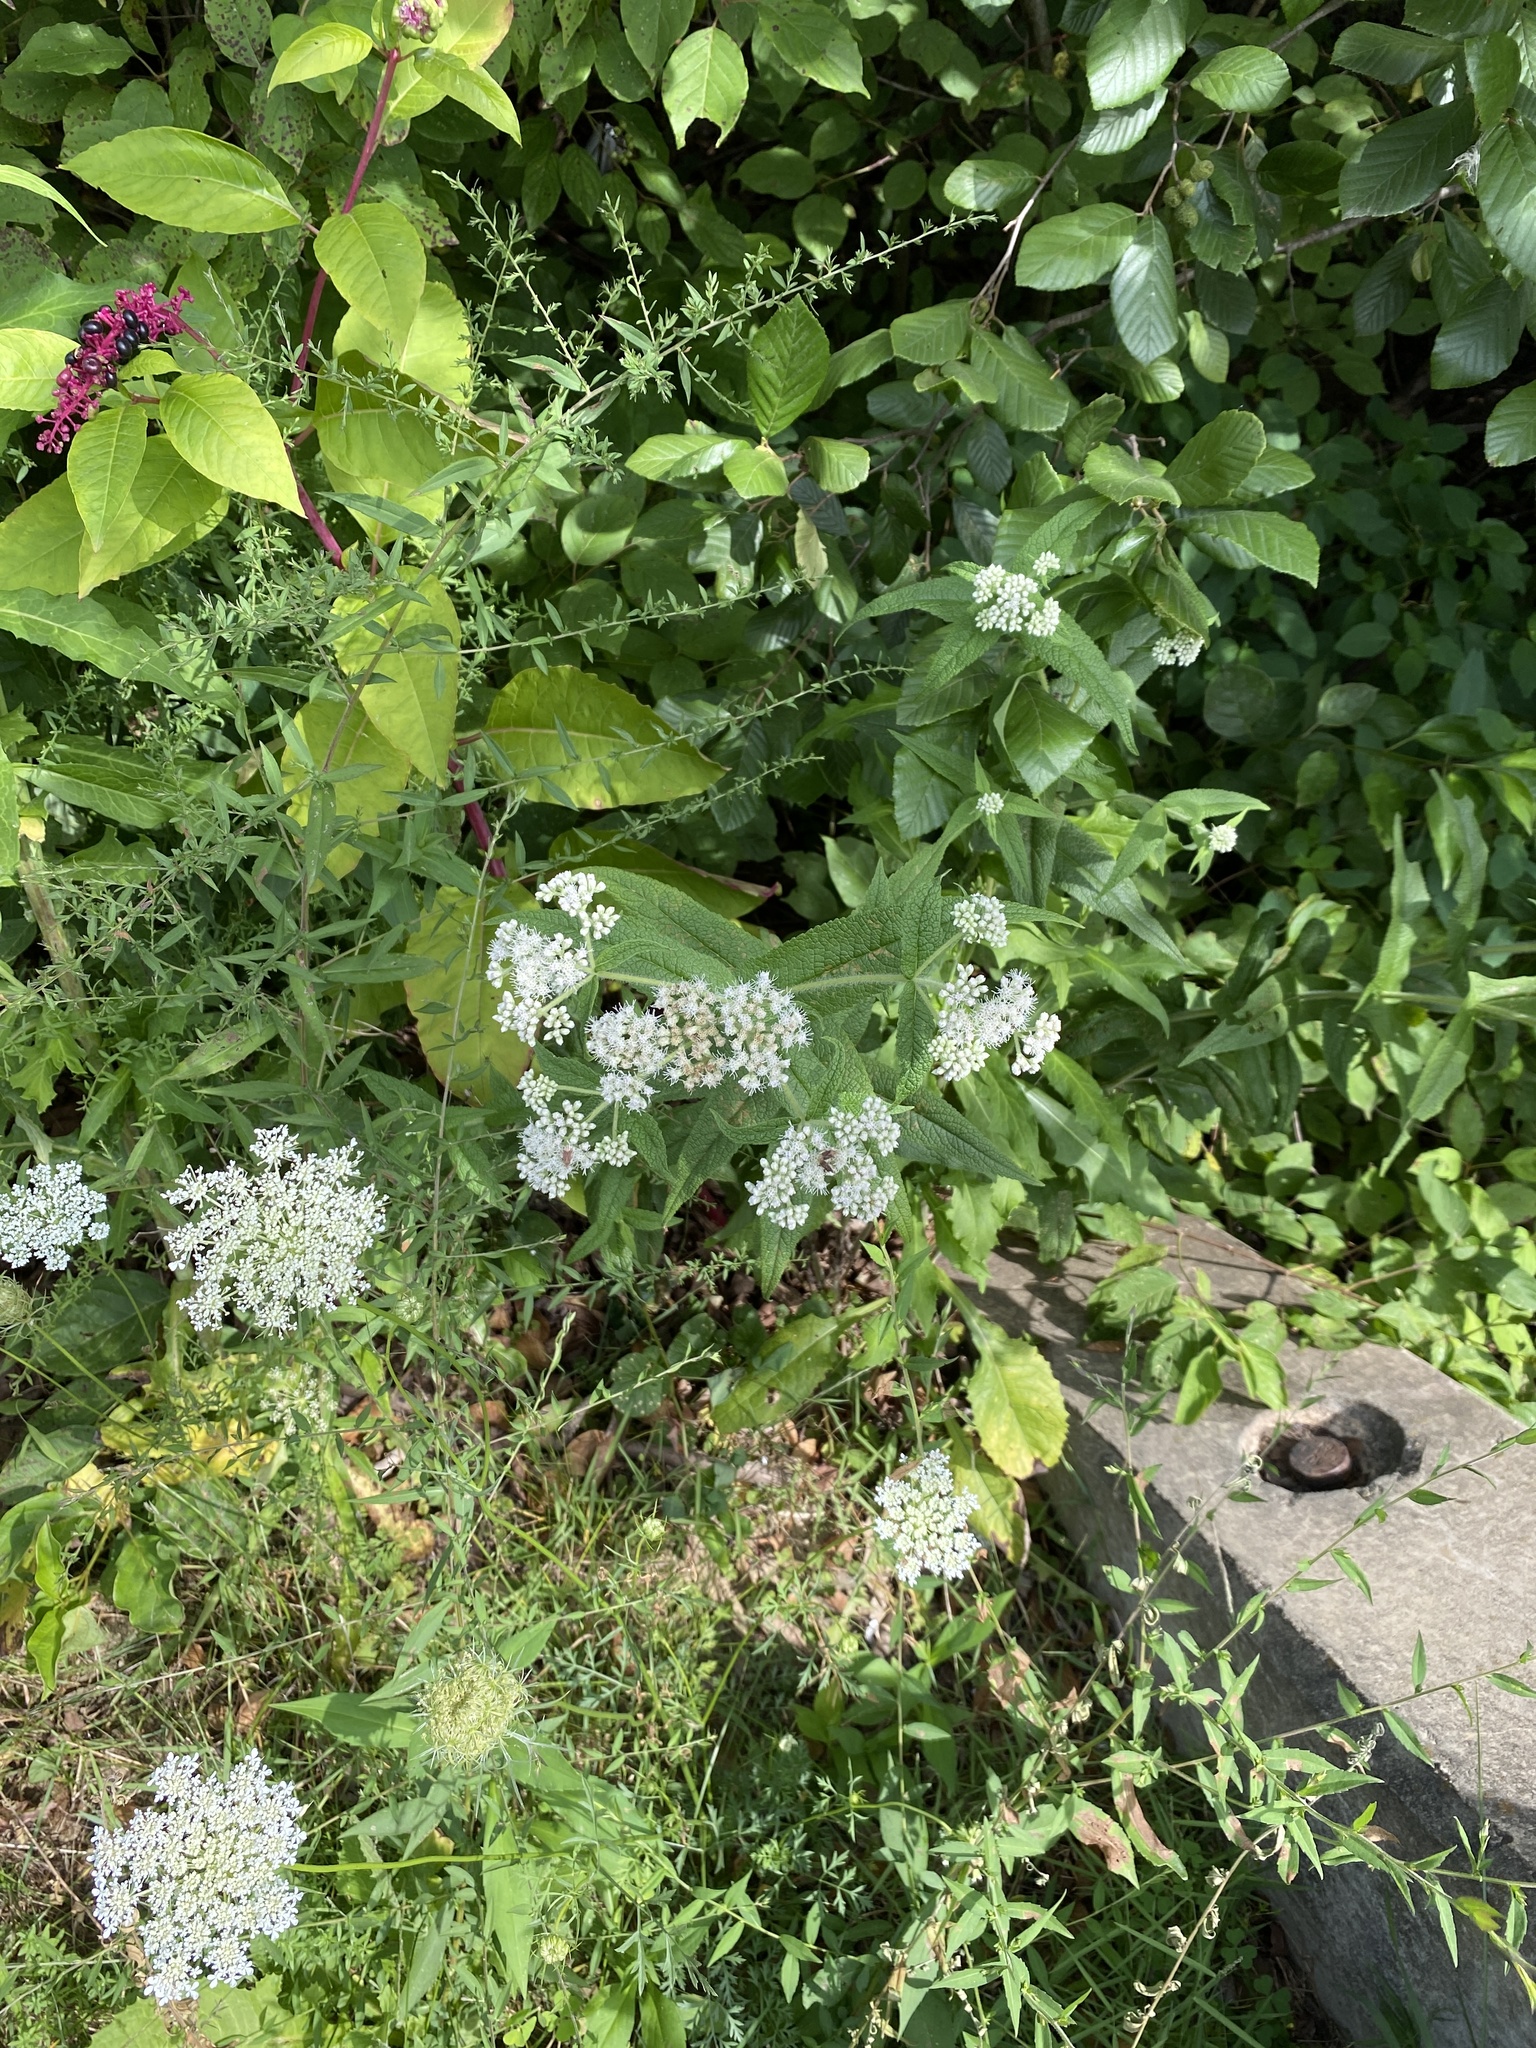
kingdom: Plantae
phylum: Tracheophyta
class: Magnoliopsida
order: Asterales
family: Asteraceae
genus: Eupatorium
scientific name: Eupatorium perfoliatum
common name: Boneset
